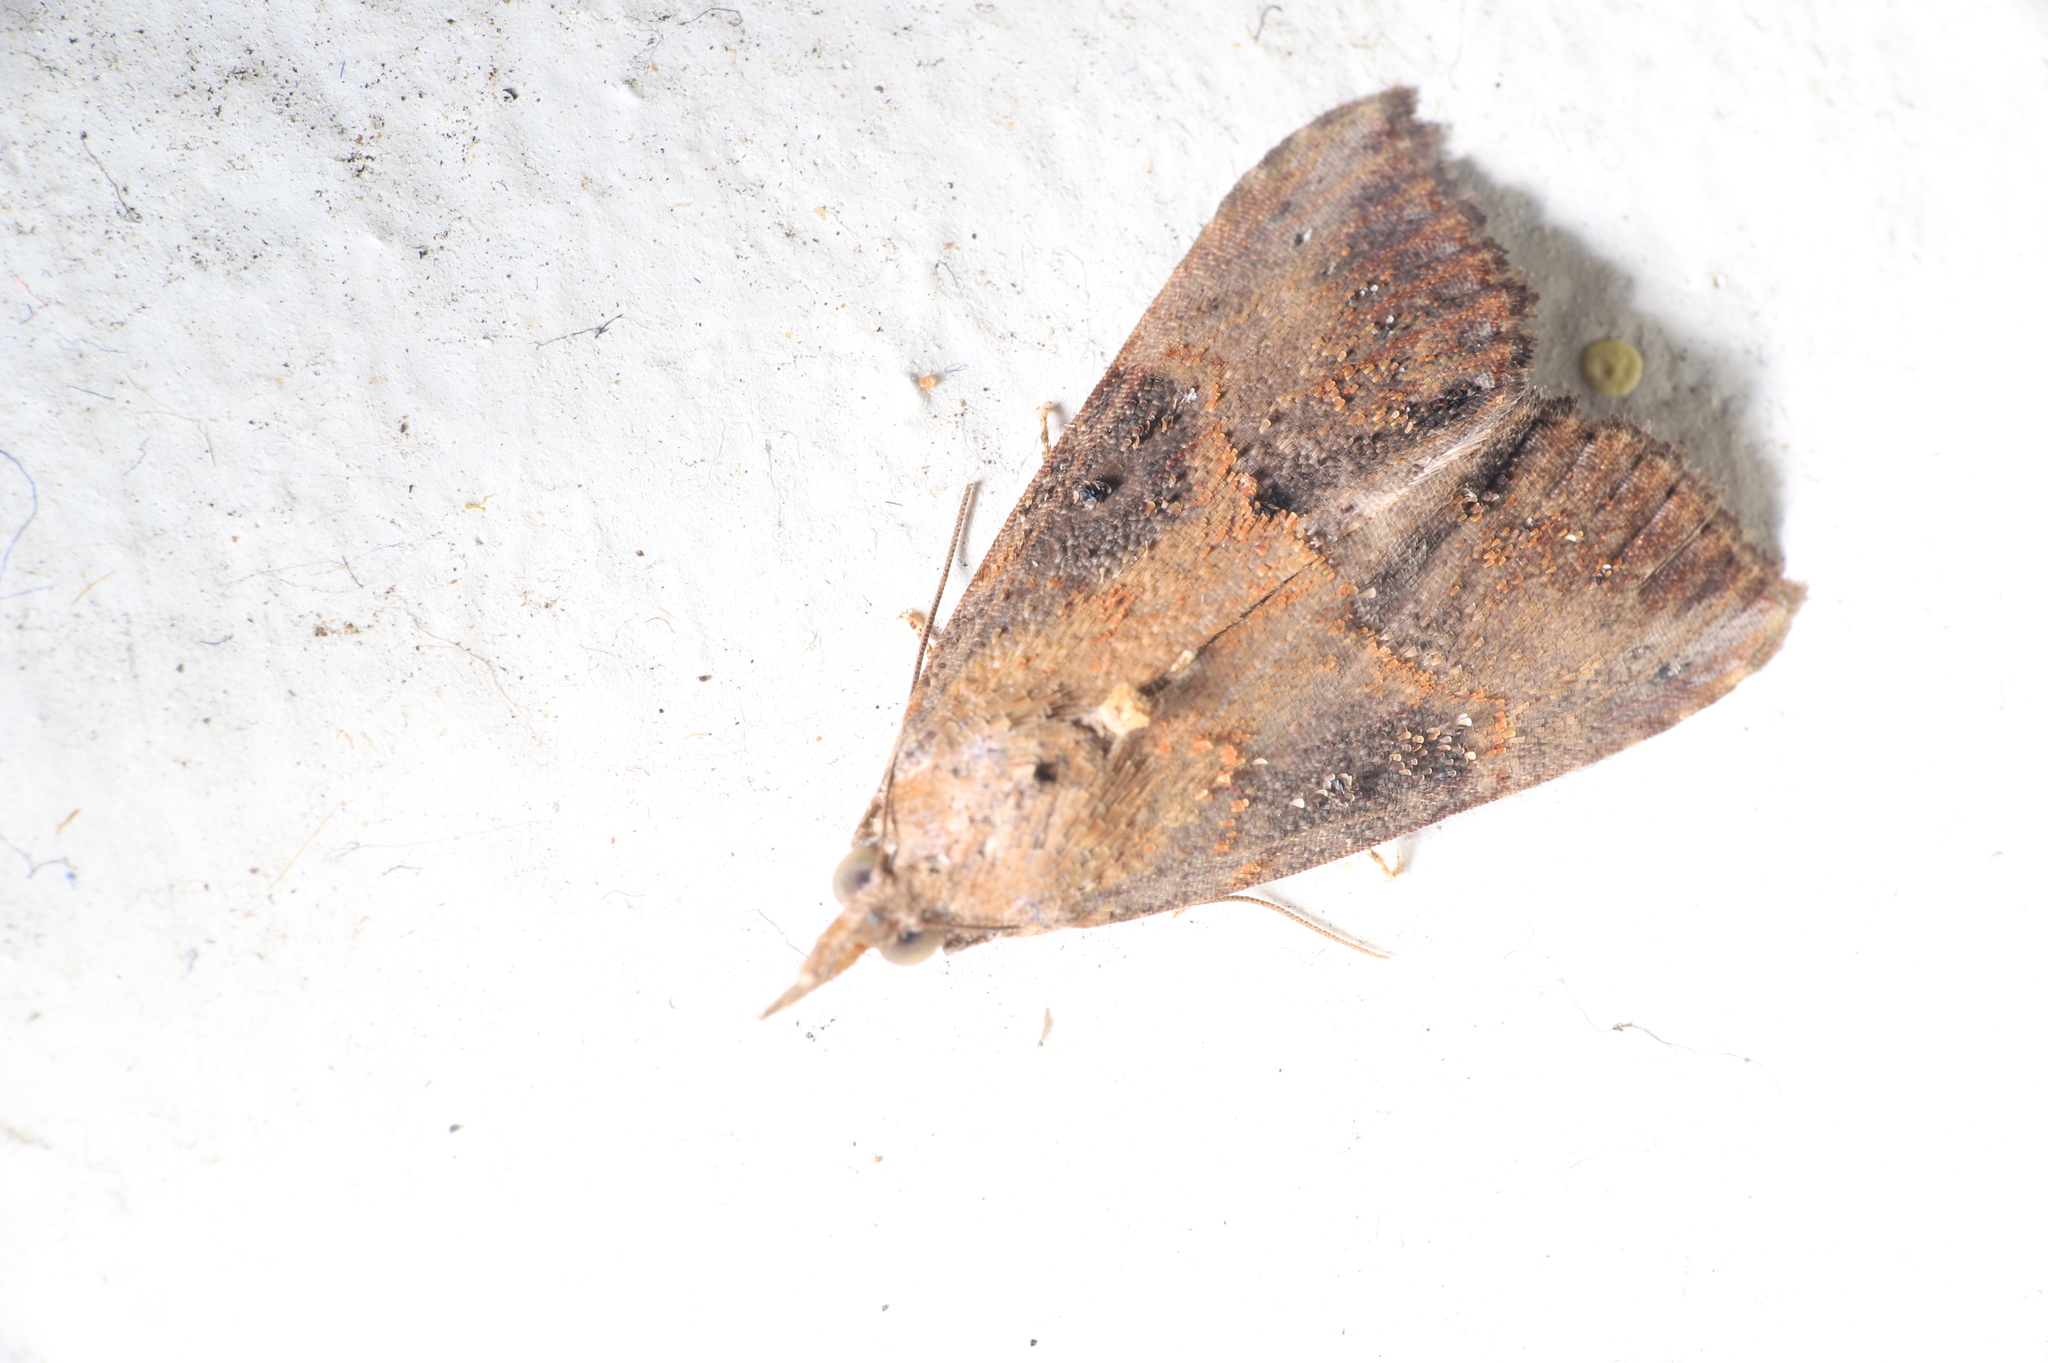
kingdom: Animalia
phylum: Arthropoda
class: Insecta
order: Lepidoptera
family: Erebidae
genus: Hypena
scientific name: Hypena scabra
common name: Green cloverworm
